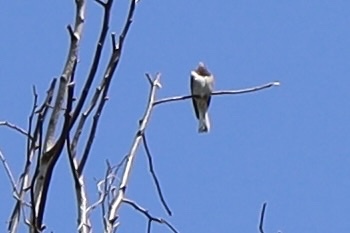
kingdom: Animalia
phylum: Chordata
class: Aves
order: Passeriformes
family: Passerellidae
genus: Junco
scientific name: Junco hyemalis
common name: Dark-eyed junco
